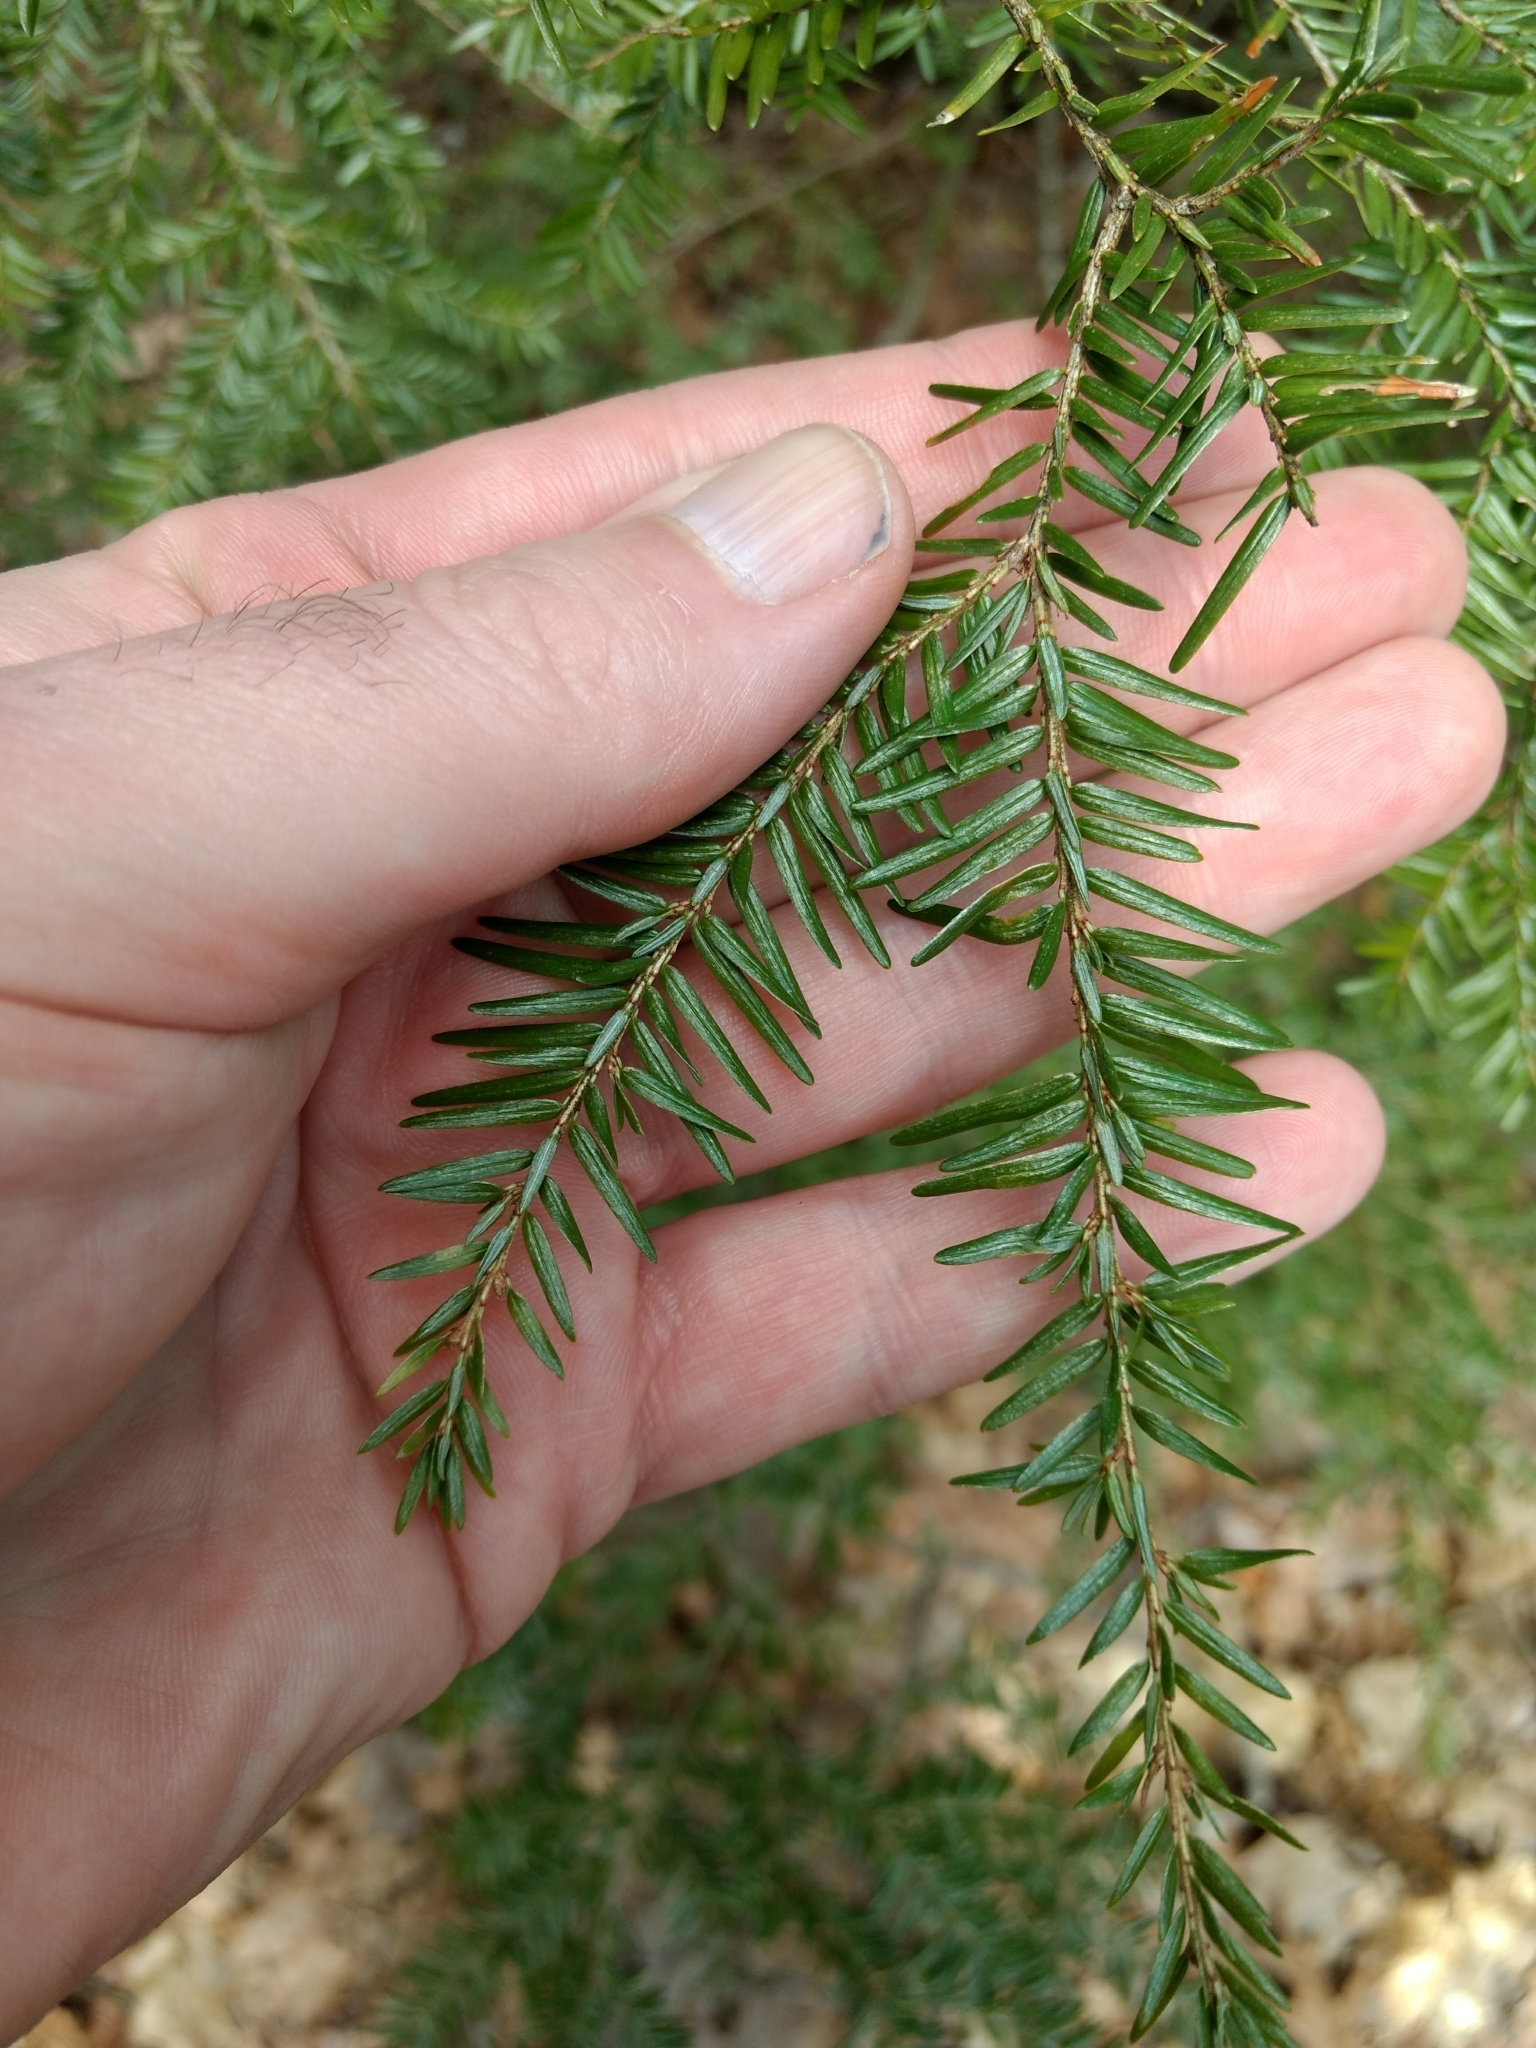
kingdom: Plantae
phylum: Tracheophyta
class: Pinopsida
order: Pinales
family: Pinaceae
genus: Tsuga
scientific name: Tsuga canadensis
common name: Eastern hemlock
